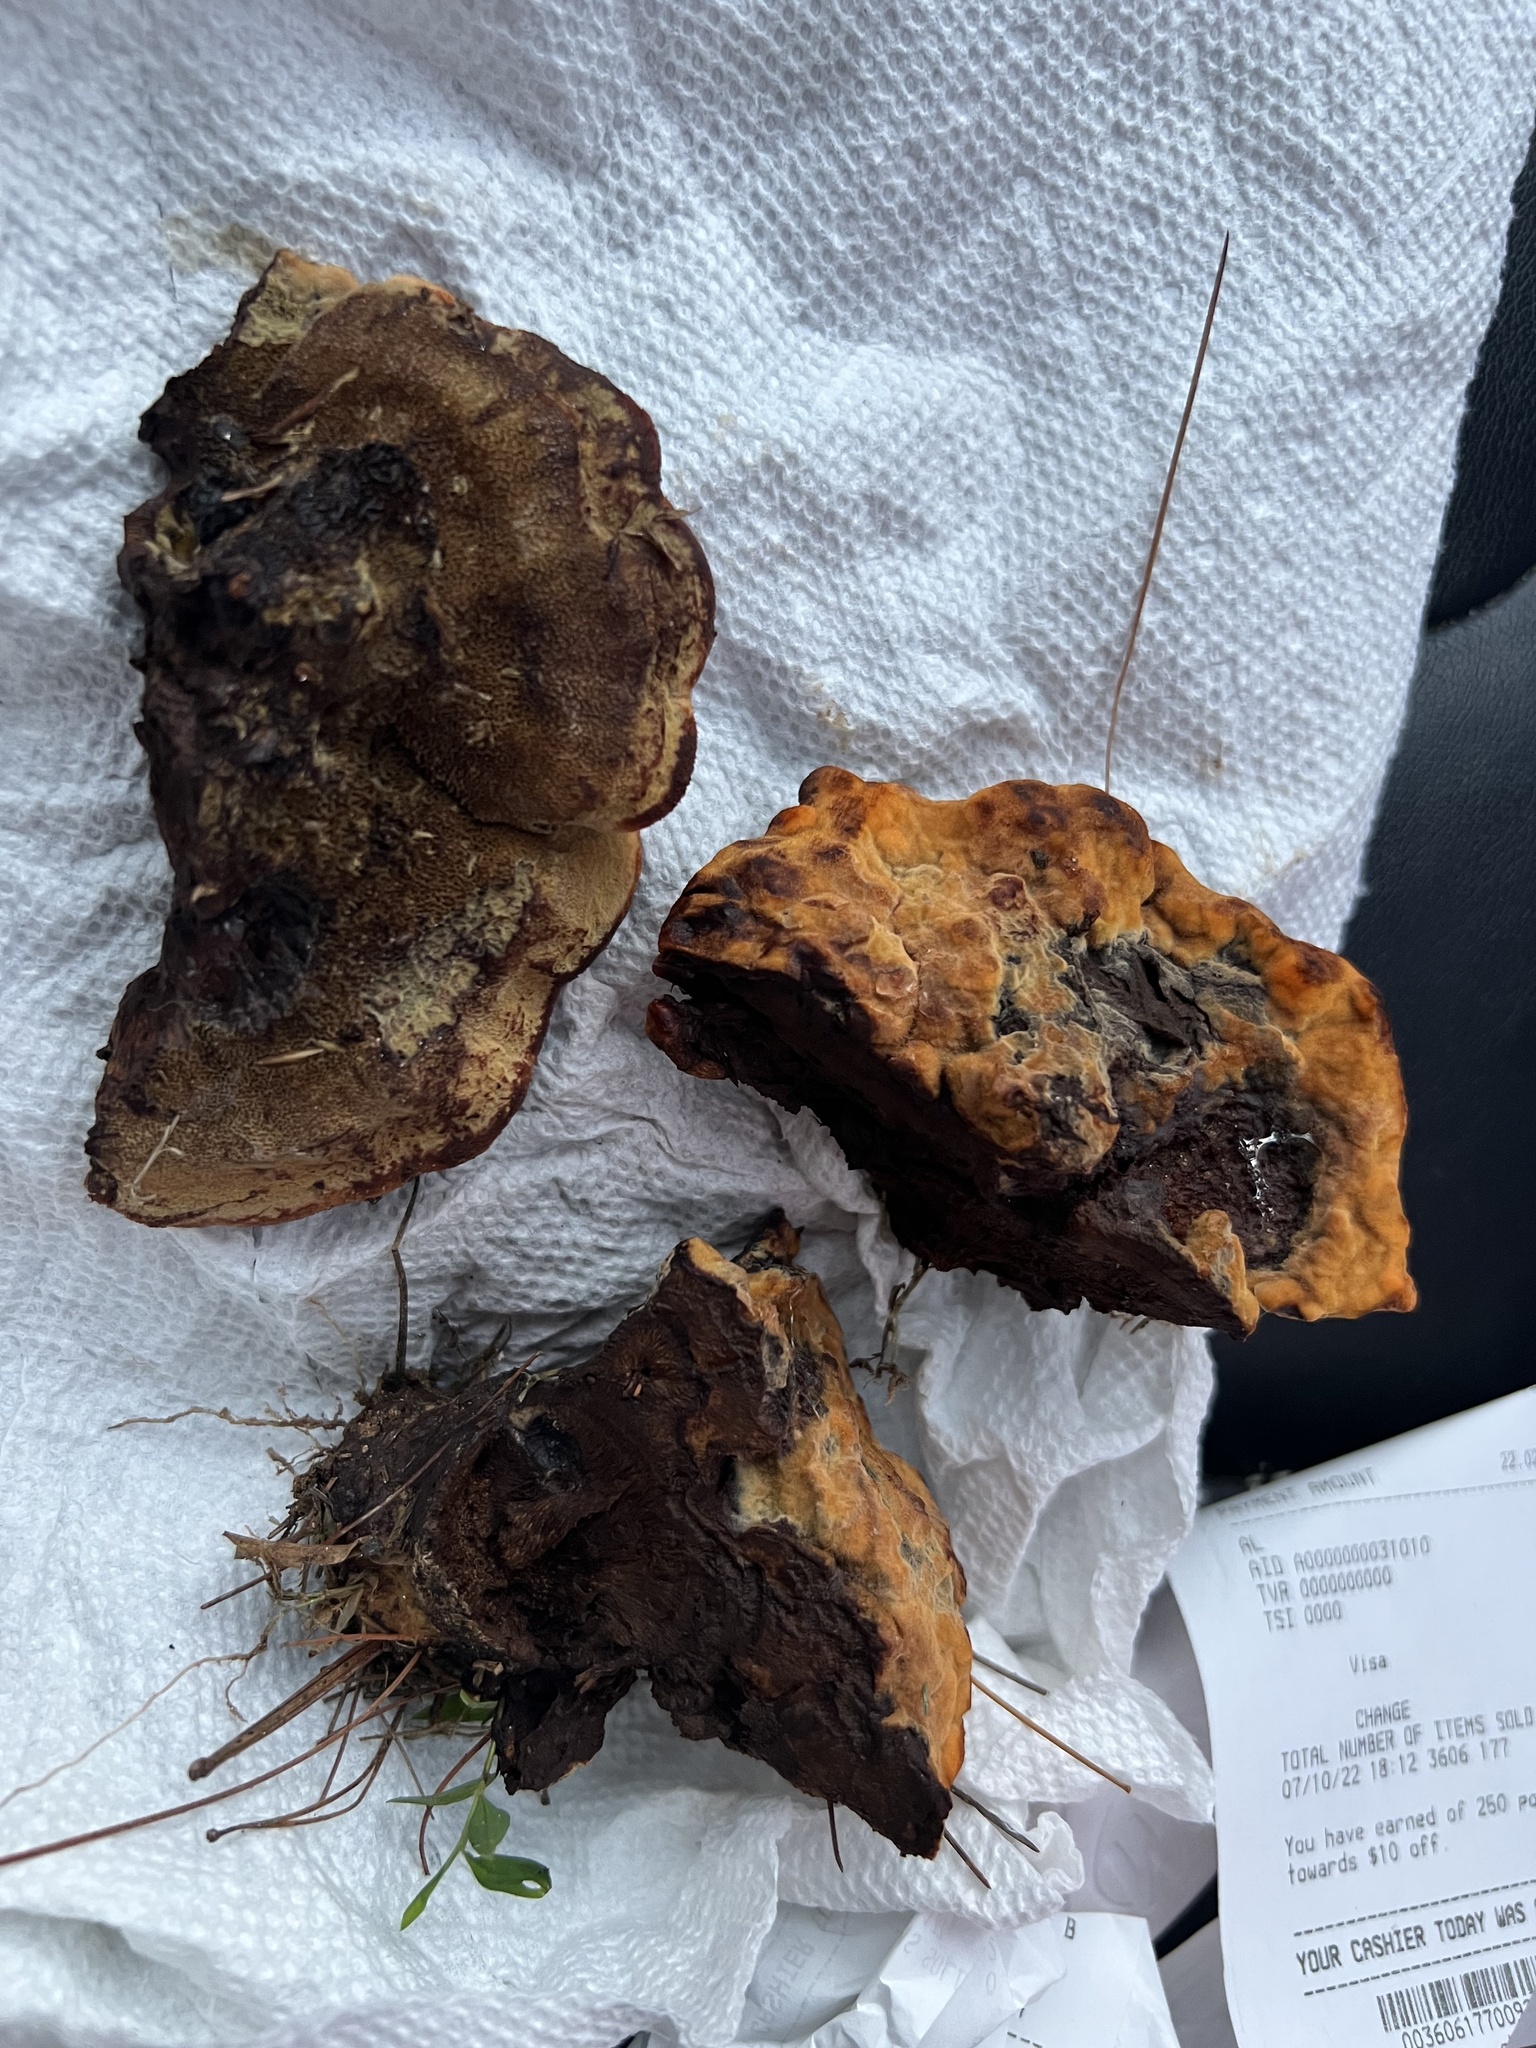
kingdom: Fungi
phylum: Basidiomycota
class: Agaricomycetes
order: Polyporales
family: Laetiporaceae
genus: Phaeolus
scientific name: Phaeolus schweinitzii
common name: Dyer's mazegill
